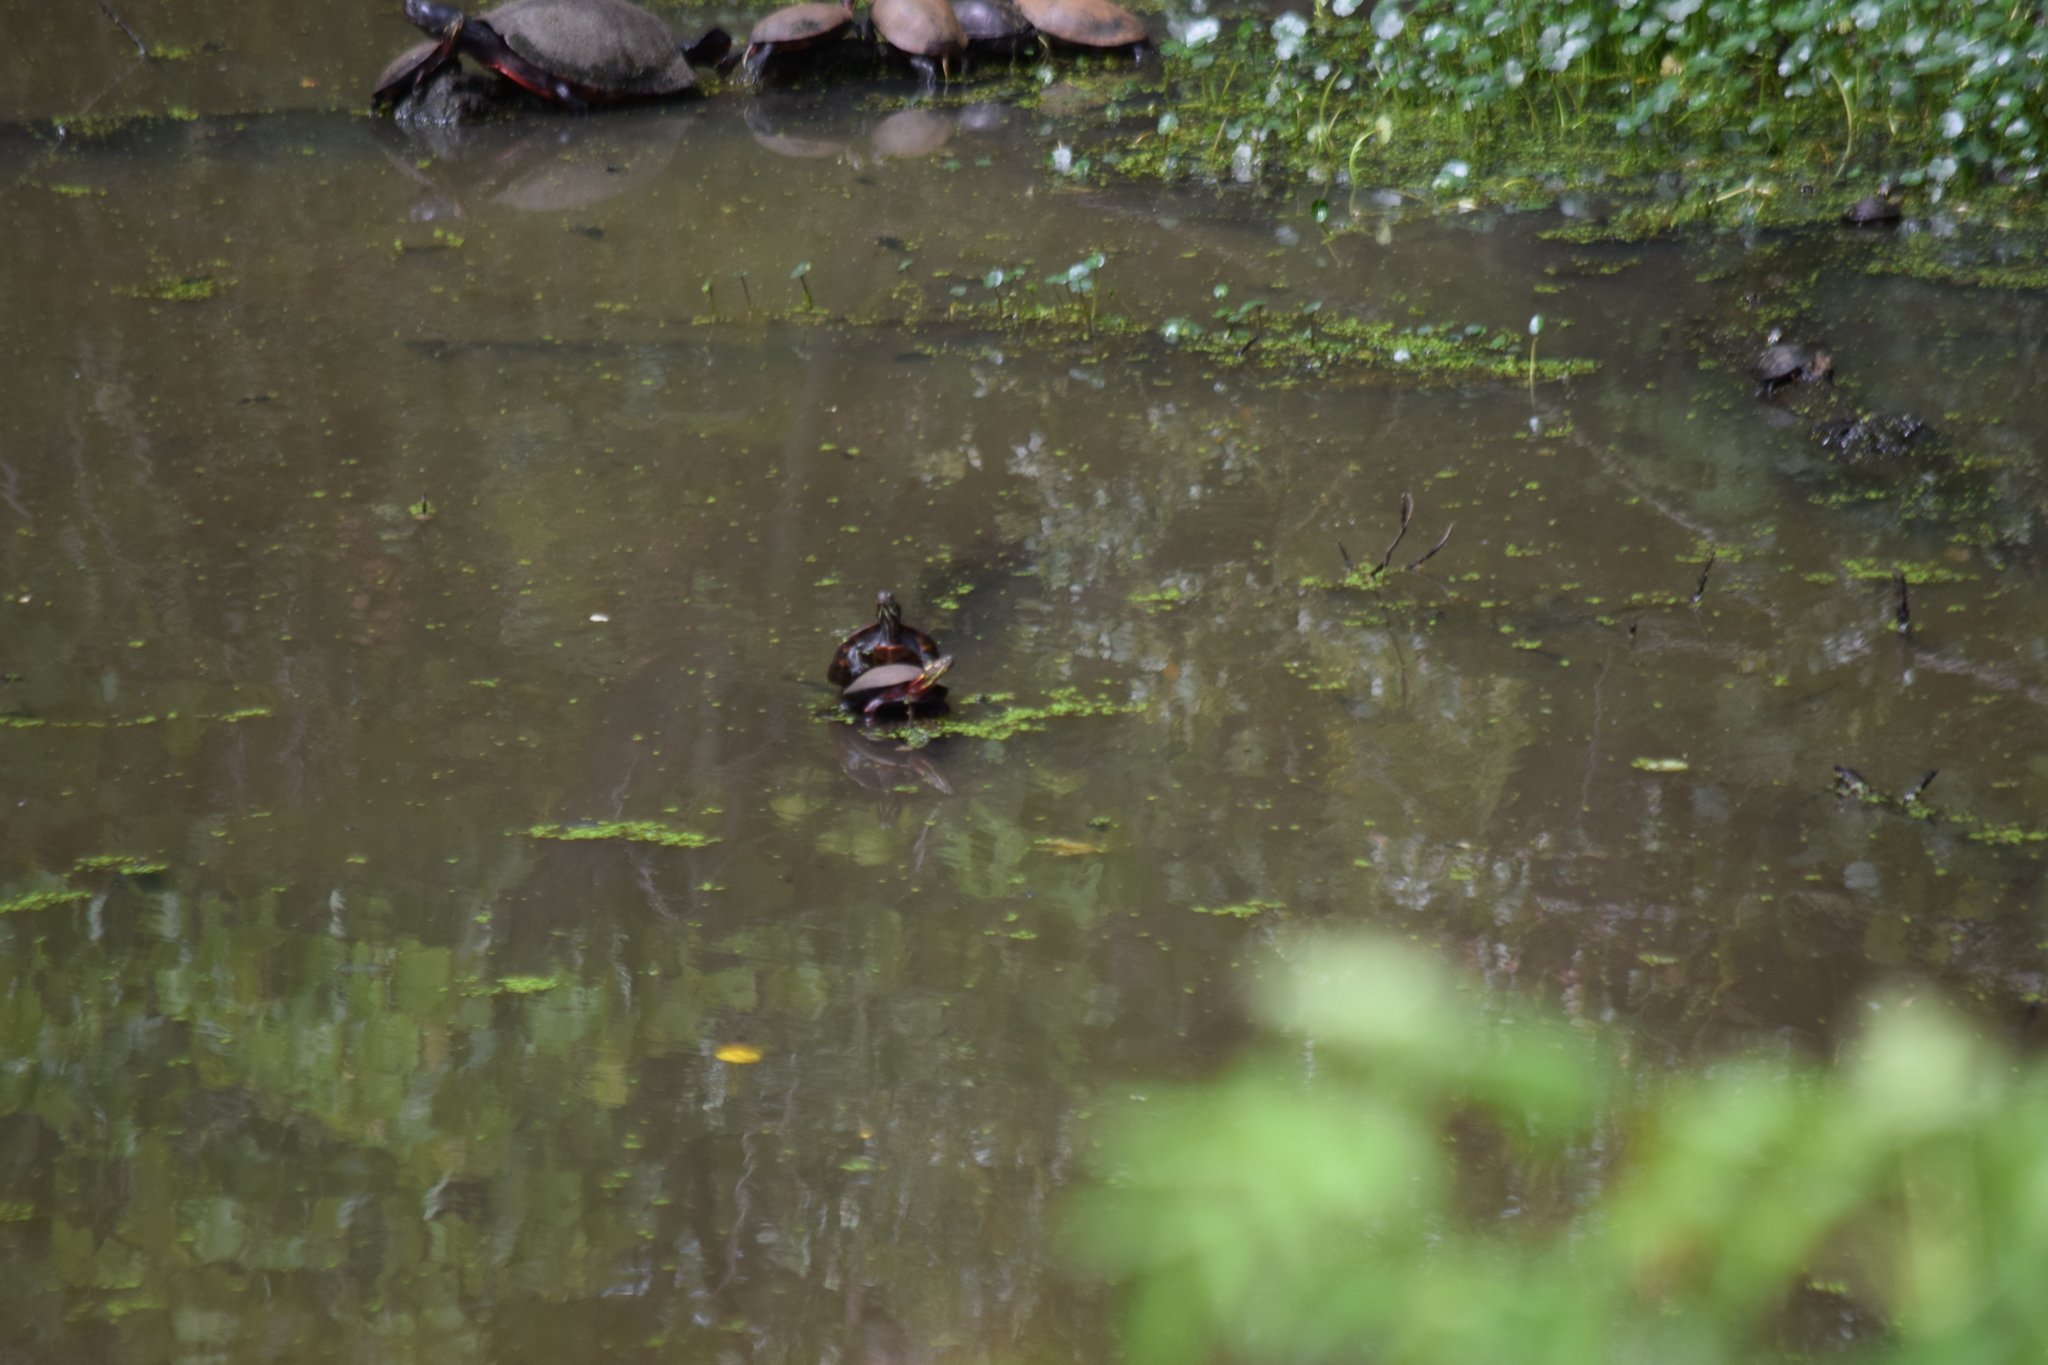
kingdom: Animalia
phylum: Chordata
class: Testudines
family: Emydidae
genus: Chrysemys
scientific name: Chrysemys picta
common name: Painted turtle
